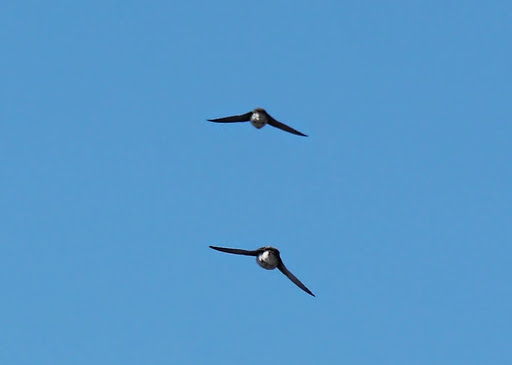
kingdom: Animalia
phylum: Chordata
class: Aves
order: Passeriformes
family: Hirundinidae
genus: Riparia
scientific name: Riparia riparia
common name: Sand martin
